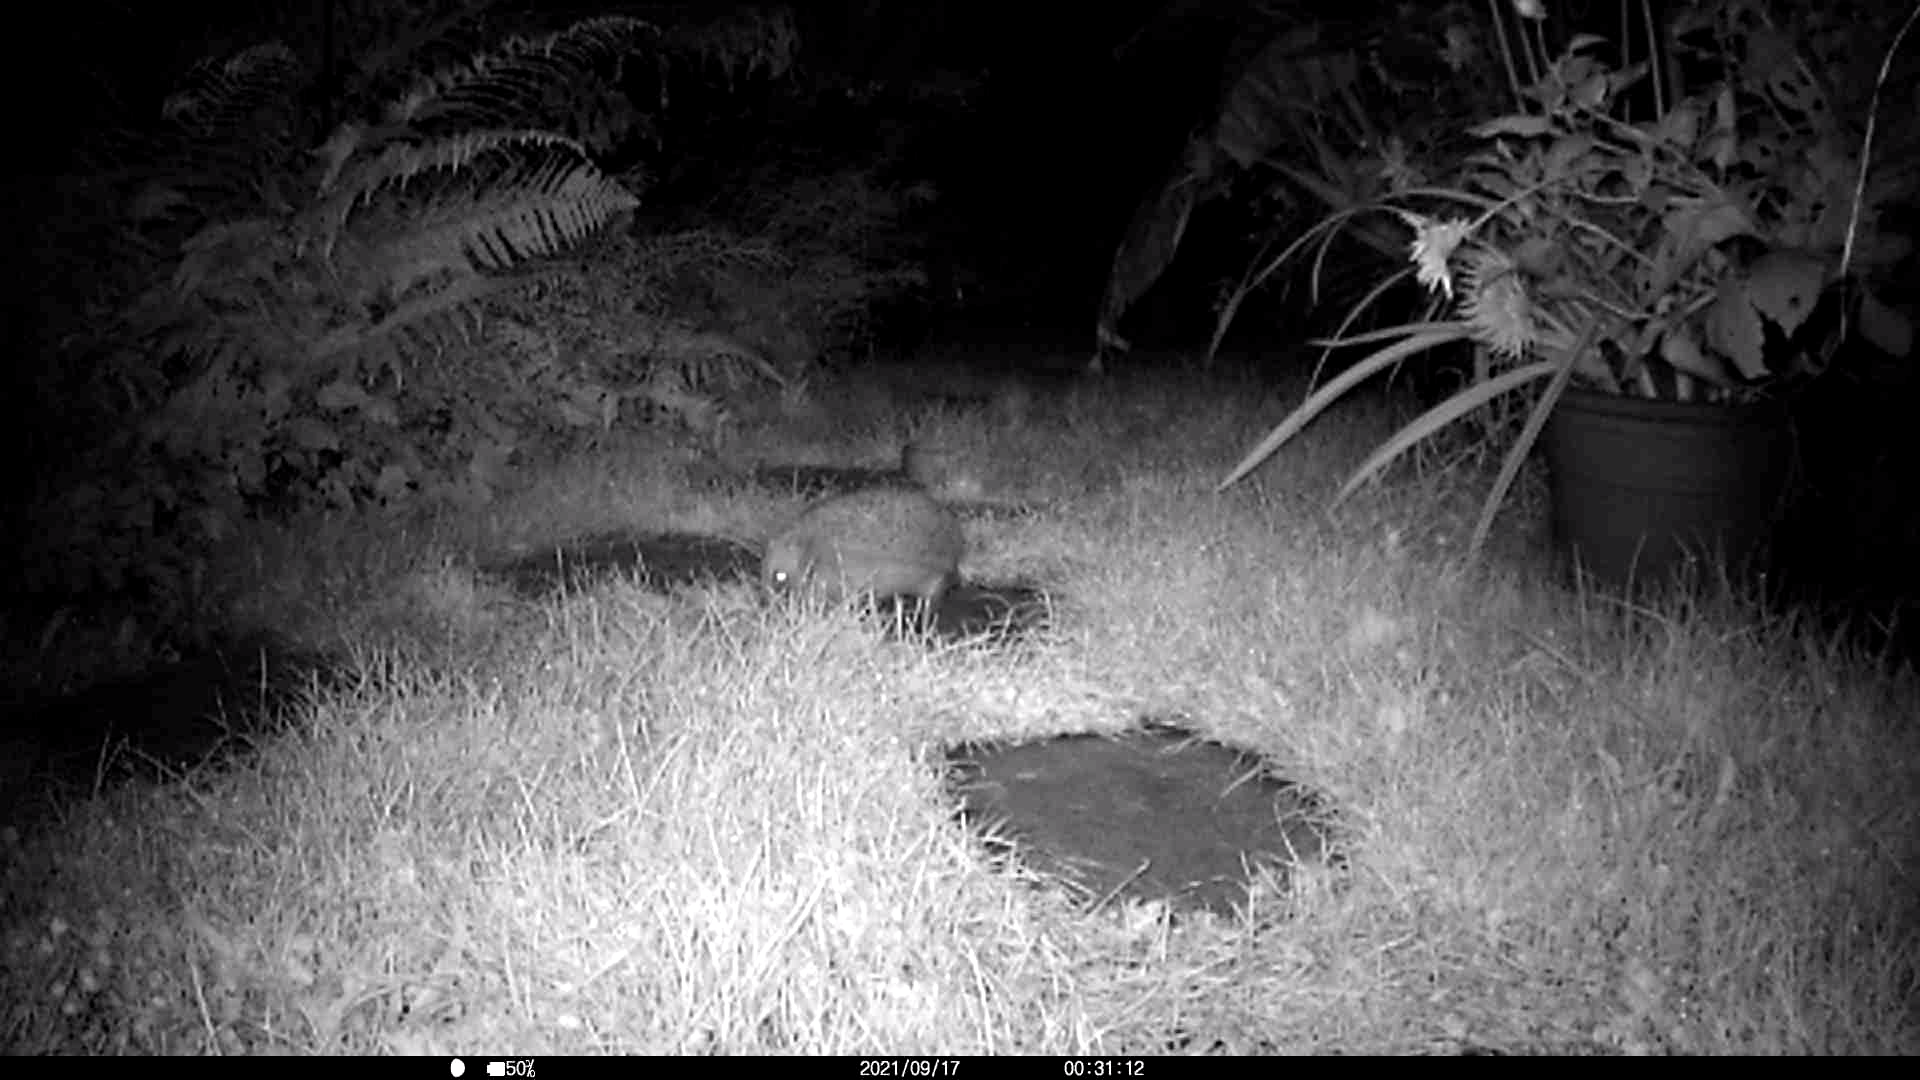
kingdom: Animalia
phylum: Chordata
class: Mammalia
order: Erinaceomorpha
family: Erinaceidae
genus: Erinaceus
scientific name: Erinaceus europaeus
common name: West european hedgehog
